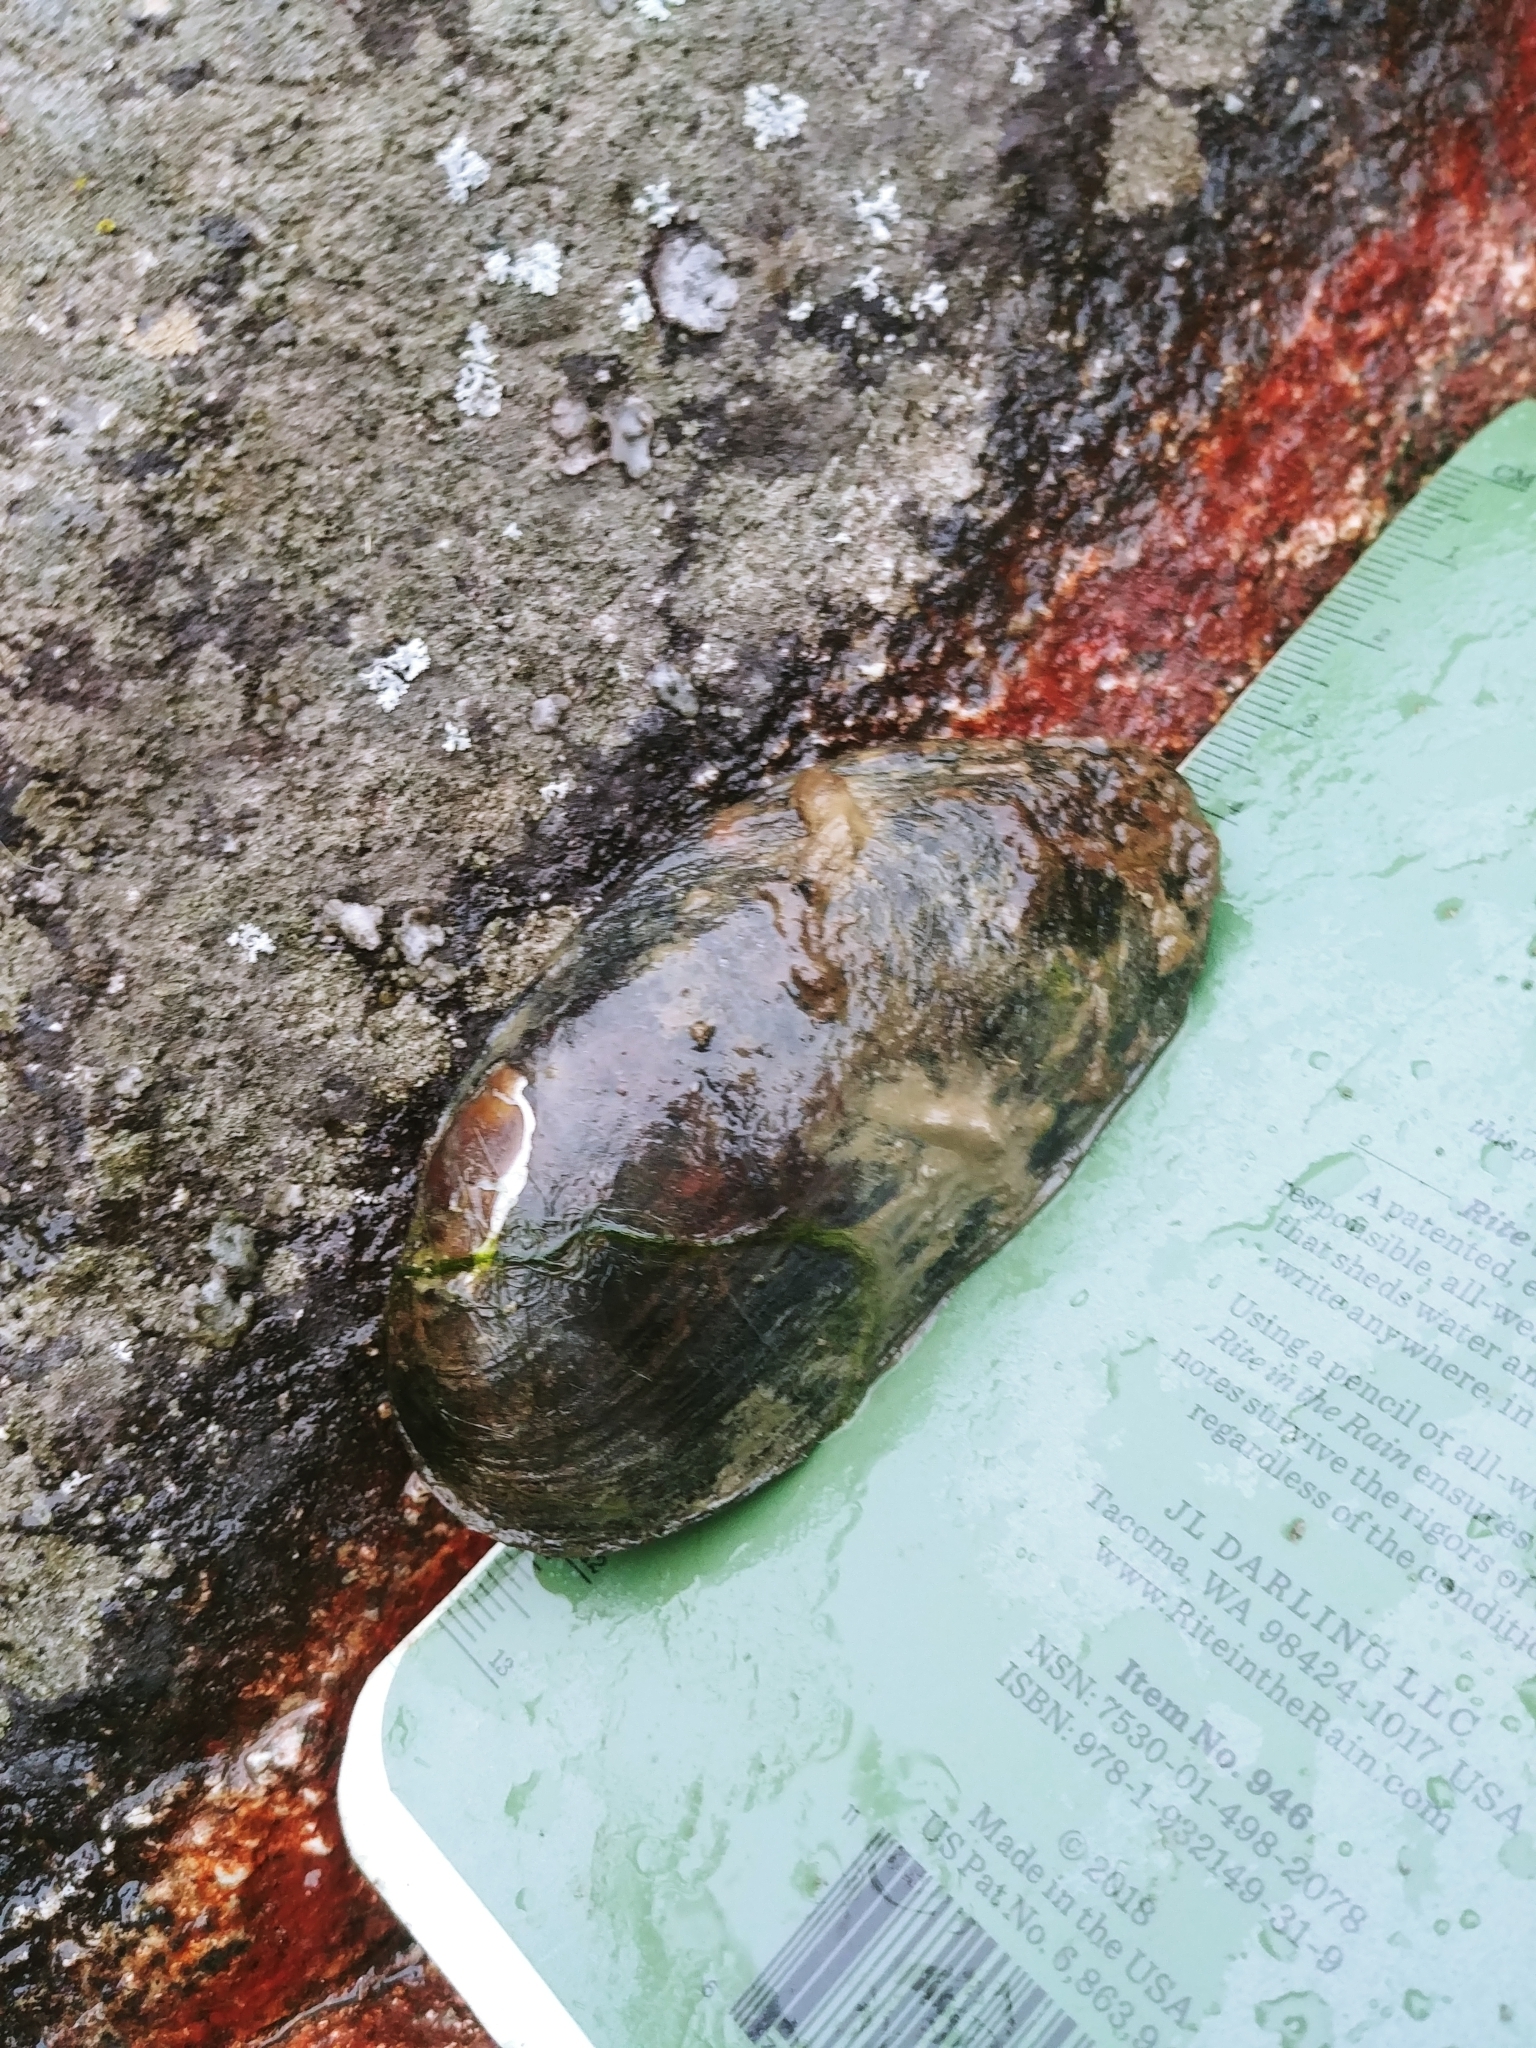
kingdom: Animalia
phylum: Mollusca
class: Bivalvia
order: Unionida
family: Margaritiferidae
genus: Margaritifera
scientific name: Margaritifera margaritifera
